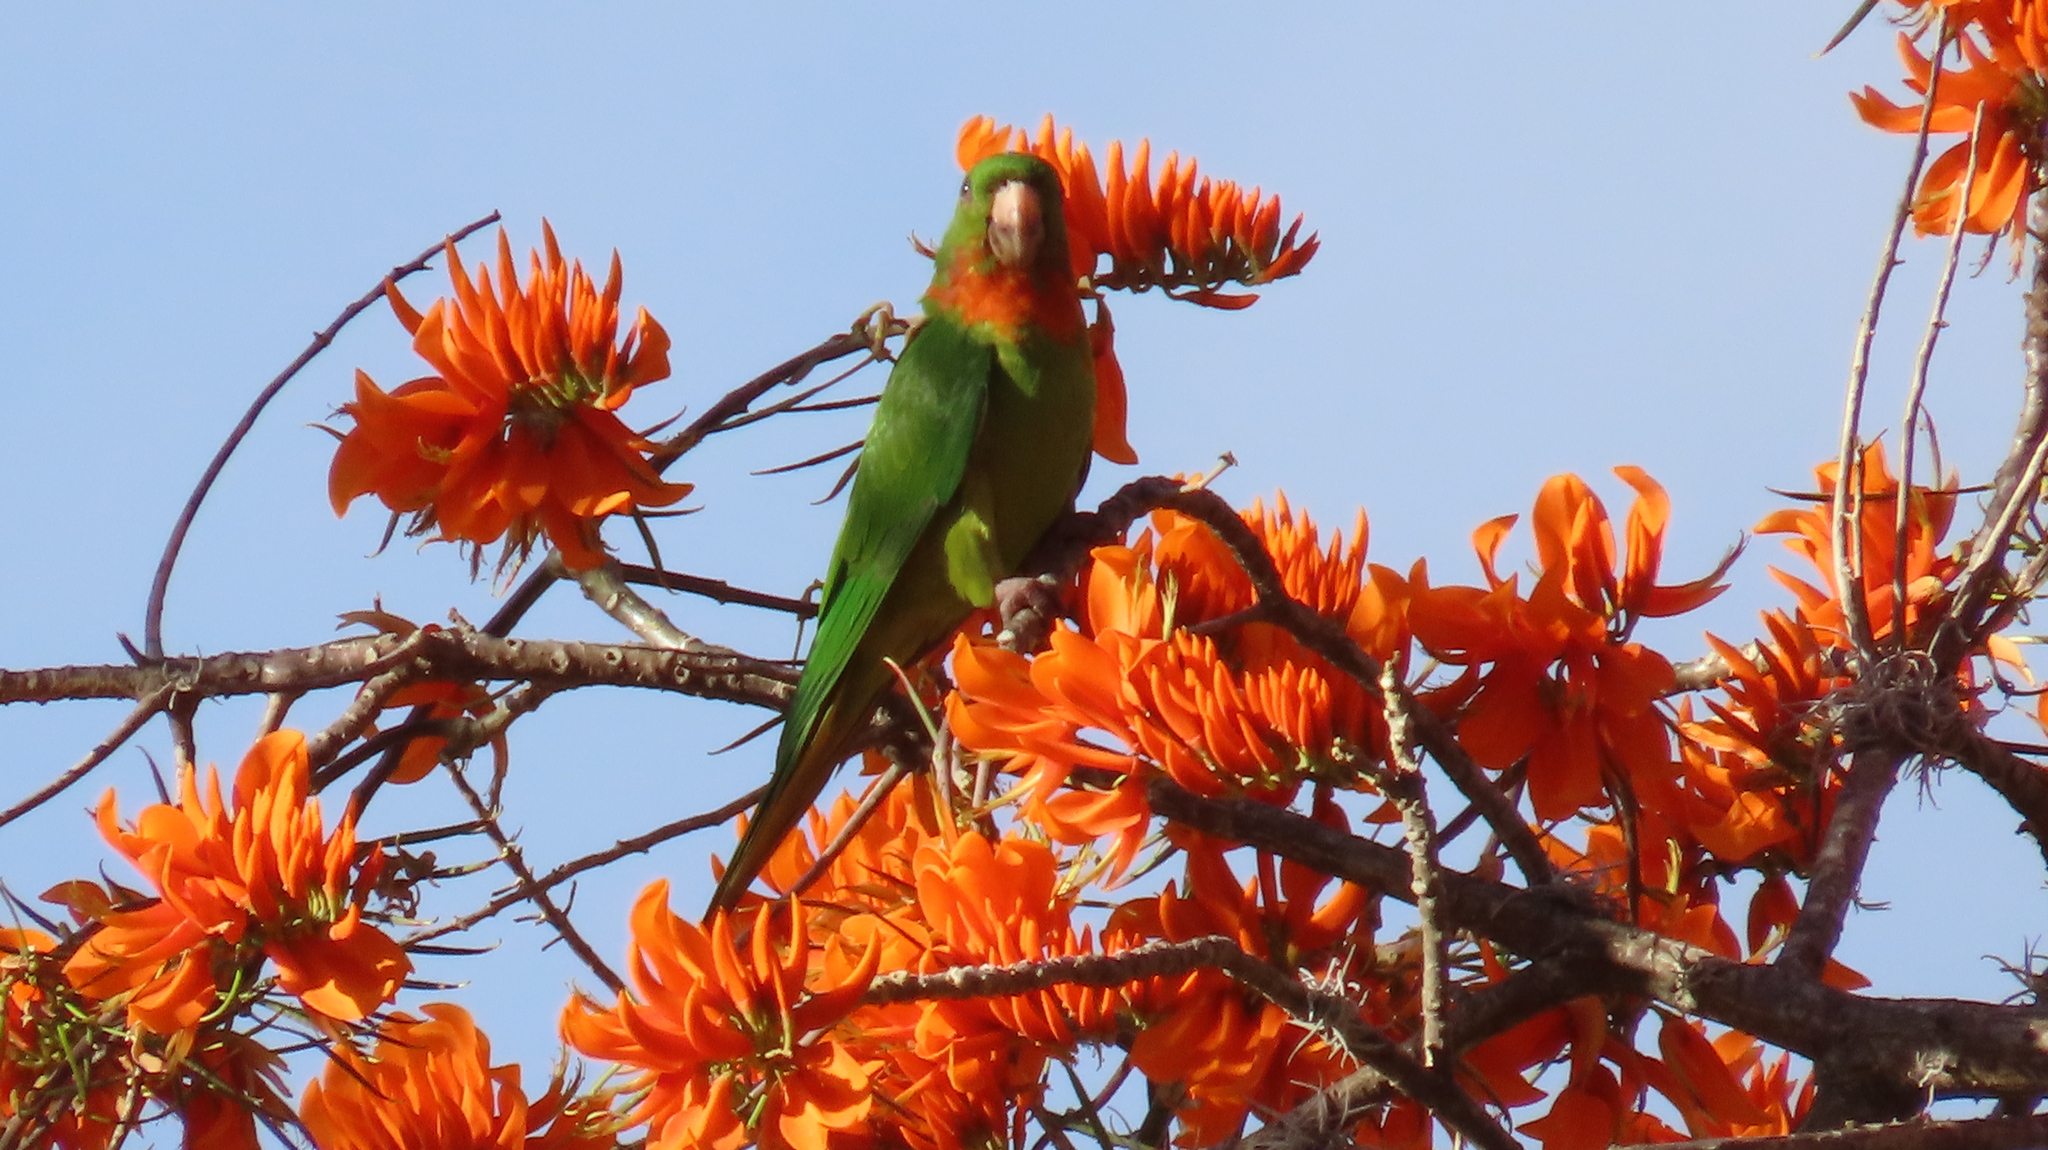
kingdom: Animalia
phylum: Chordata
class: Aves
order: Psittaciformes
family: Psittacidae
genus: Aratinga
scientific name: Aratinga holochlora
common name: Green parakeet
